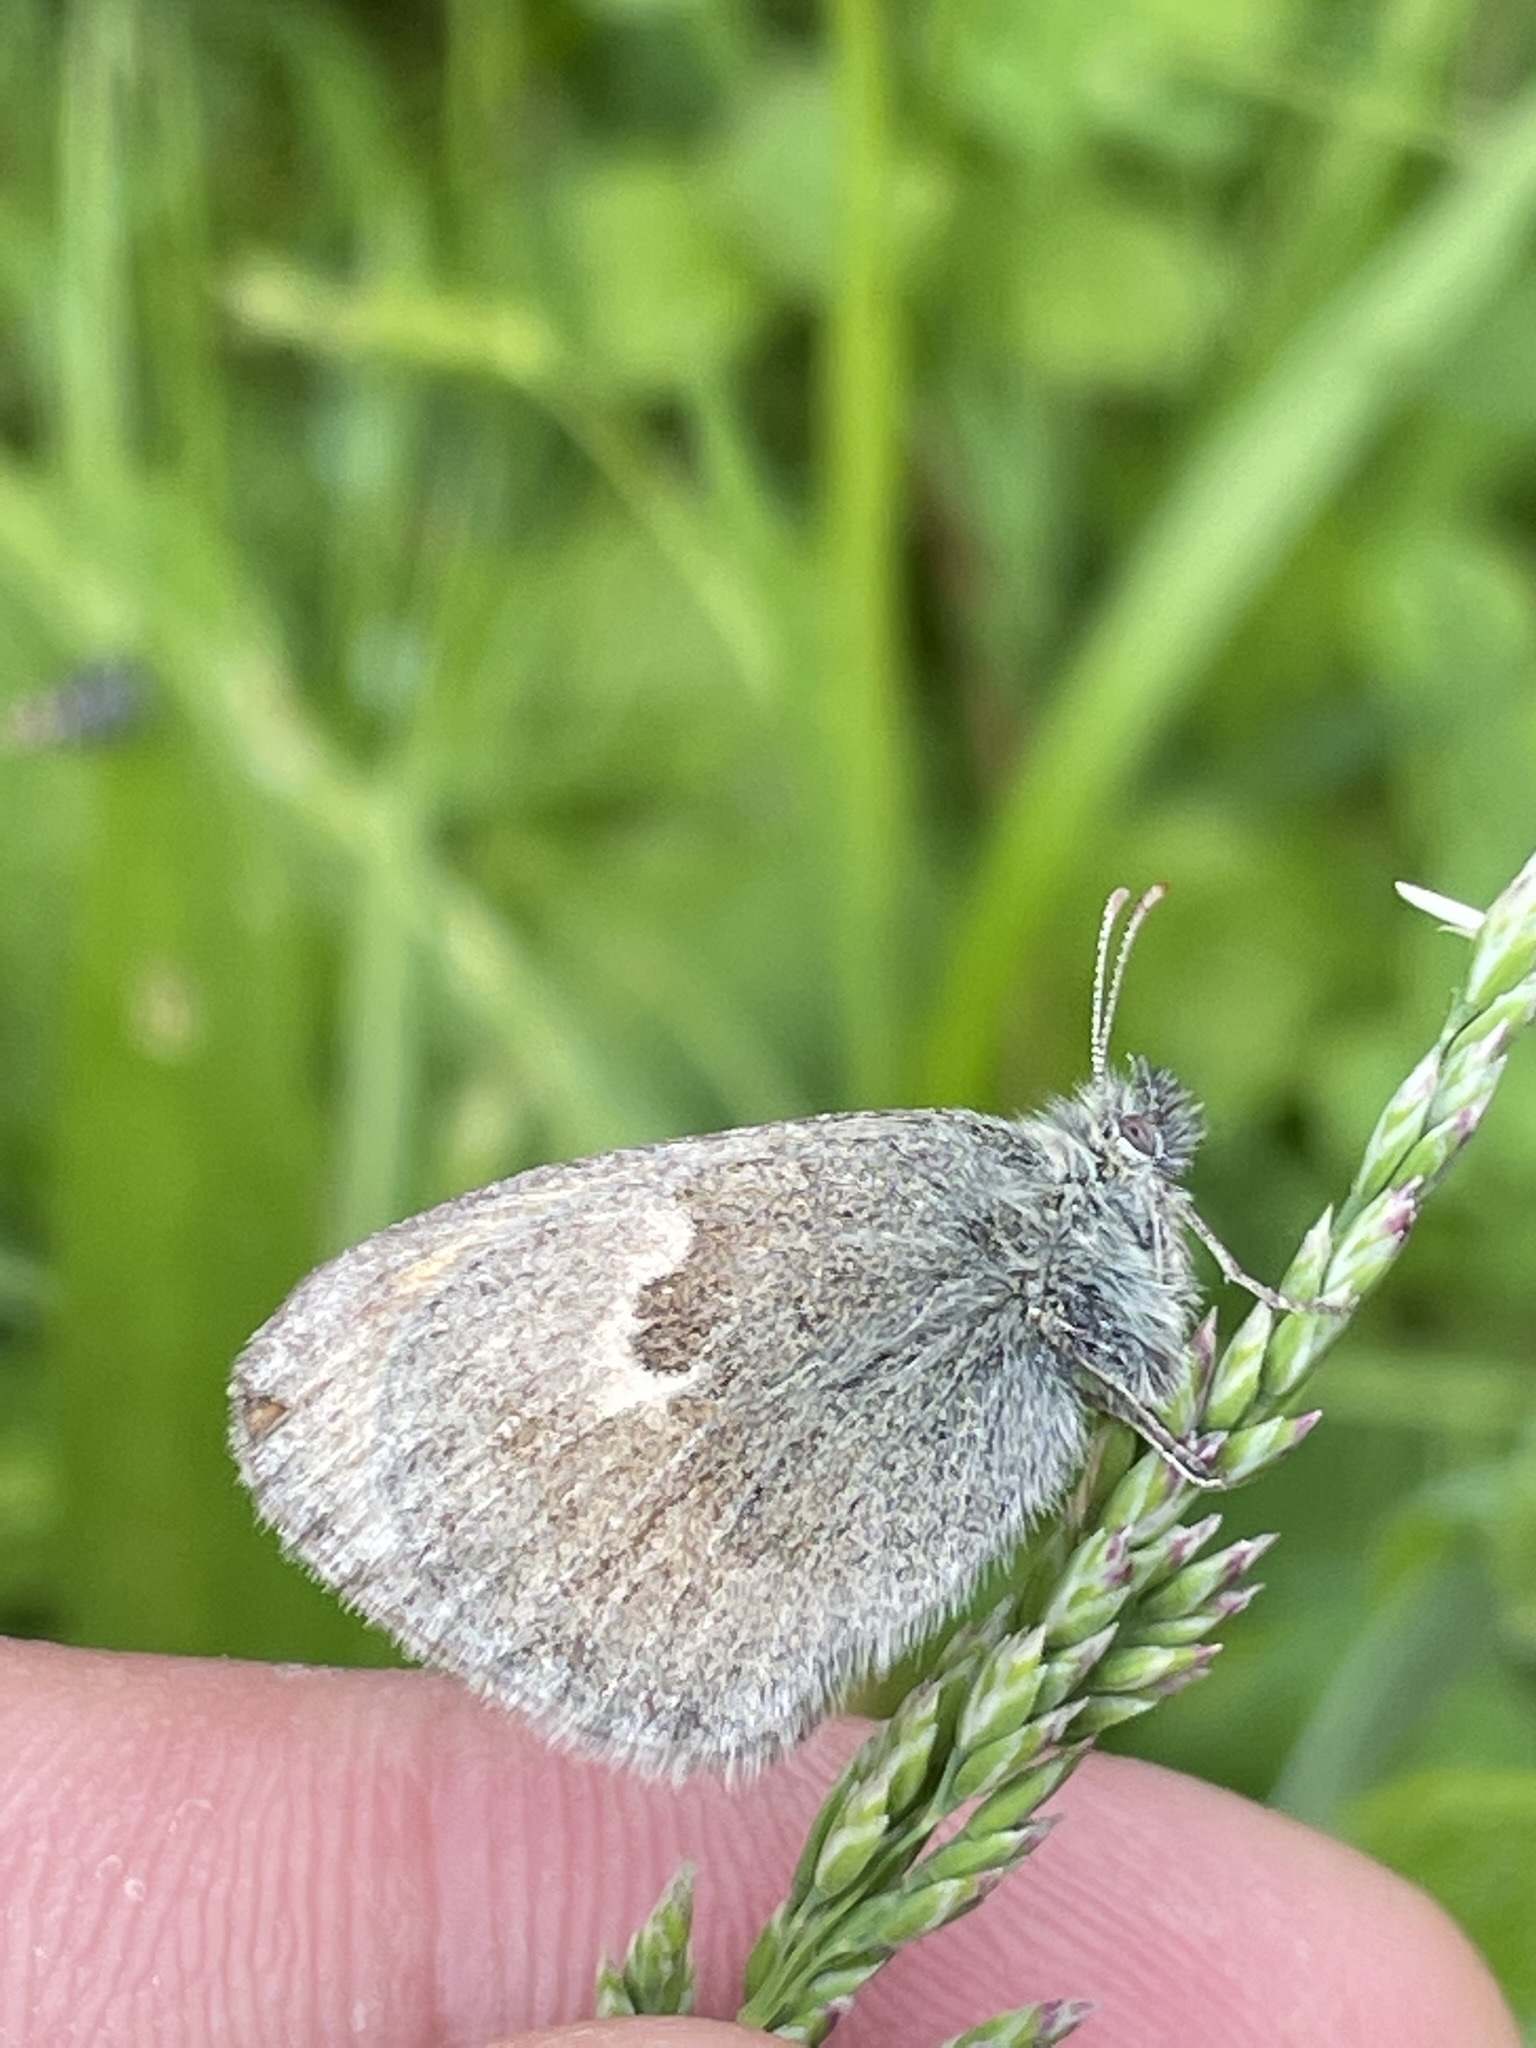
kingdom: Animalia
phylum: Arthropoda
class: Insecta
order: Lepidoptera
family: Nymphalidae
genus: Coenonympha
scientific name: Coenonympha pamphilus
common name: Small heath
